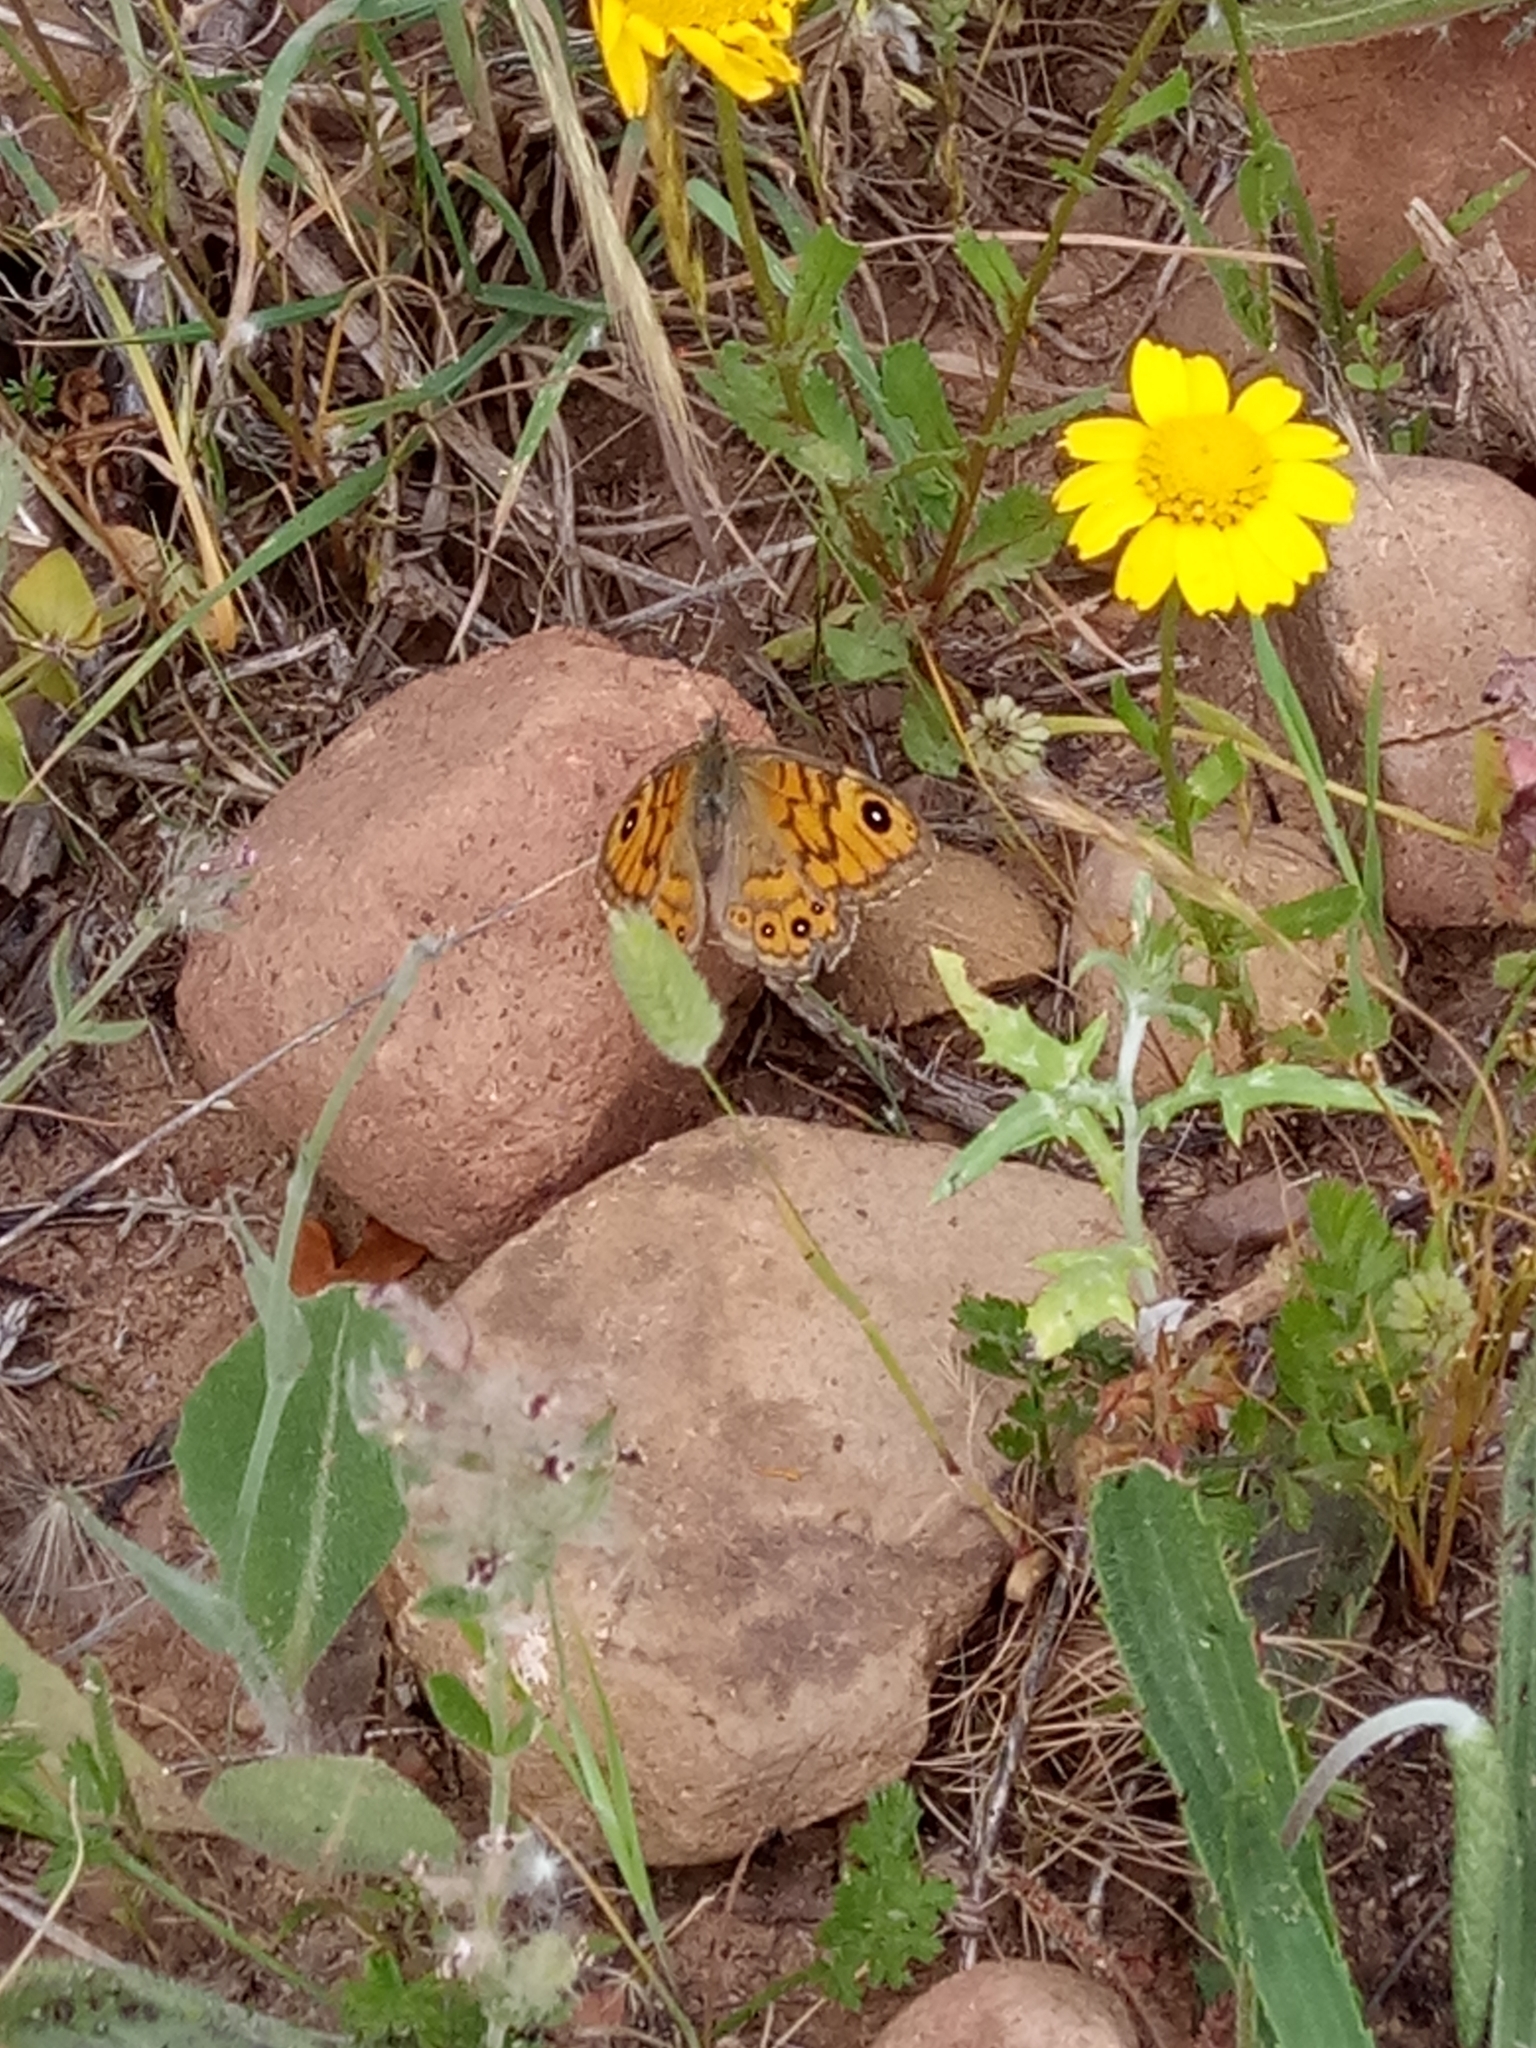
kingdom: Animalia
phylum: Arthropoda
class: Insecta
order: Lepidoptera
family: Nymphalidae
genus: Pararge
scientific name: Pararge Lasiommata megera
